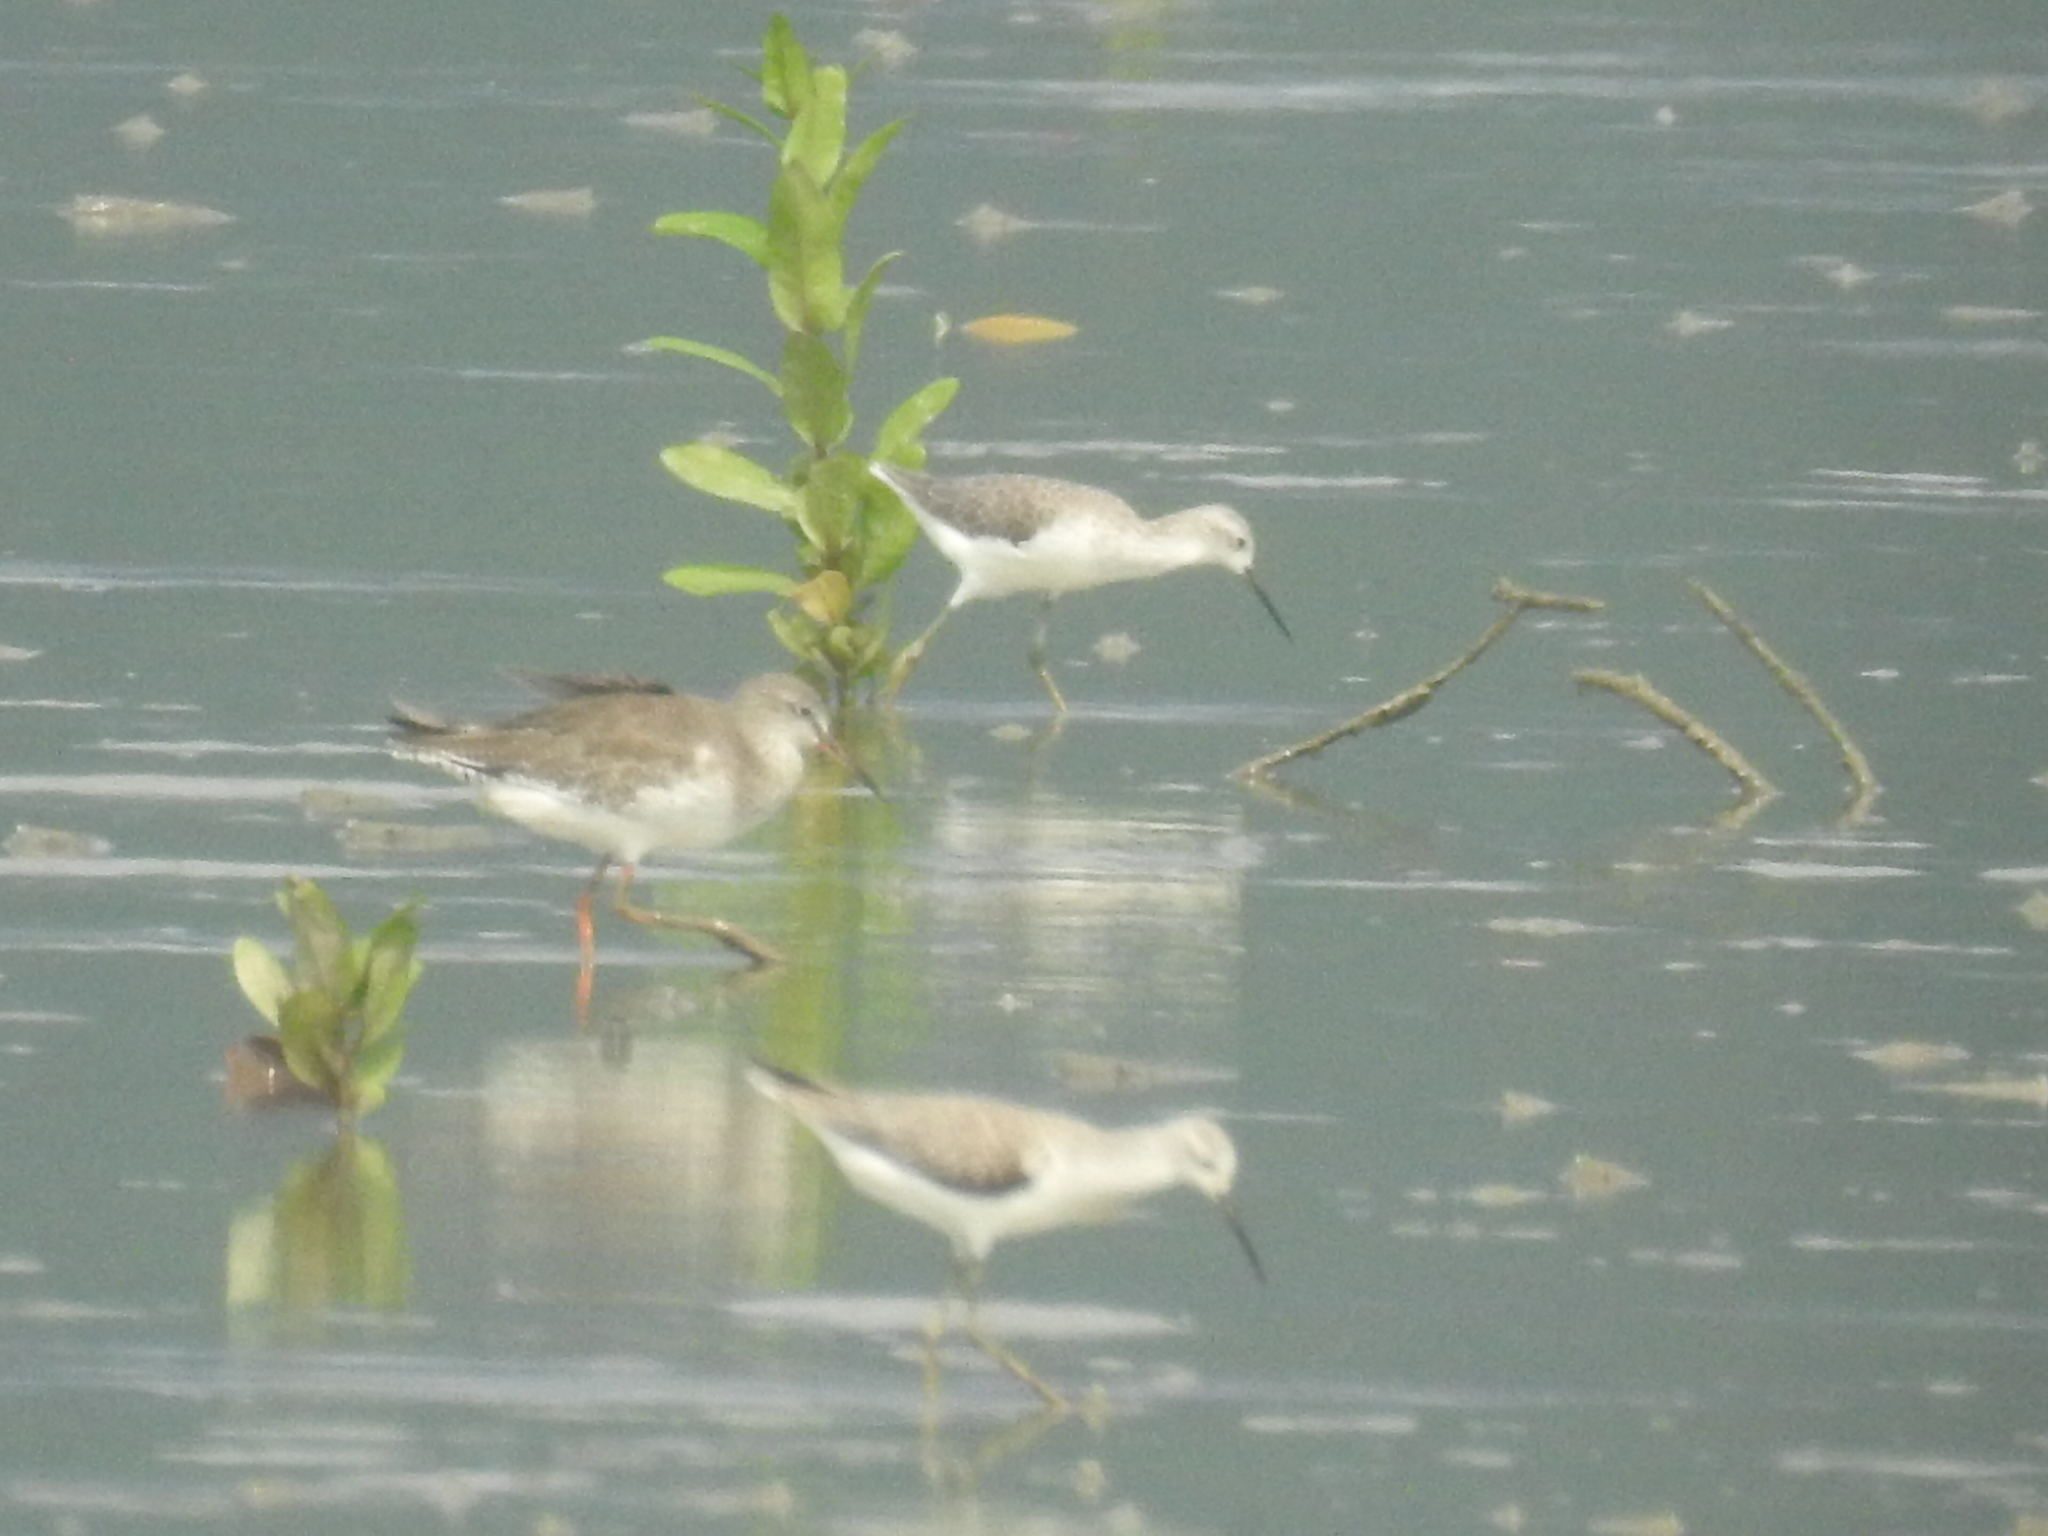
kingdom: Animalia
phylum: Chordata
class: Aves
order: Charadriiformes
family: Scolopacidae
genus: Tringa
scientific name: Tringa stagnatilis
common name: Marsh sandpiper
